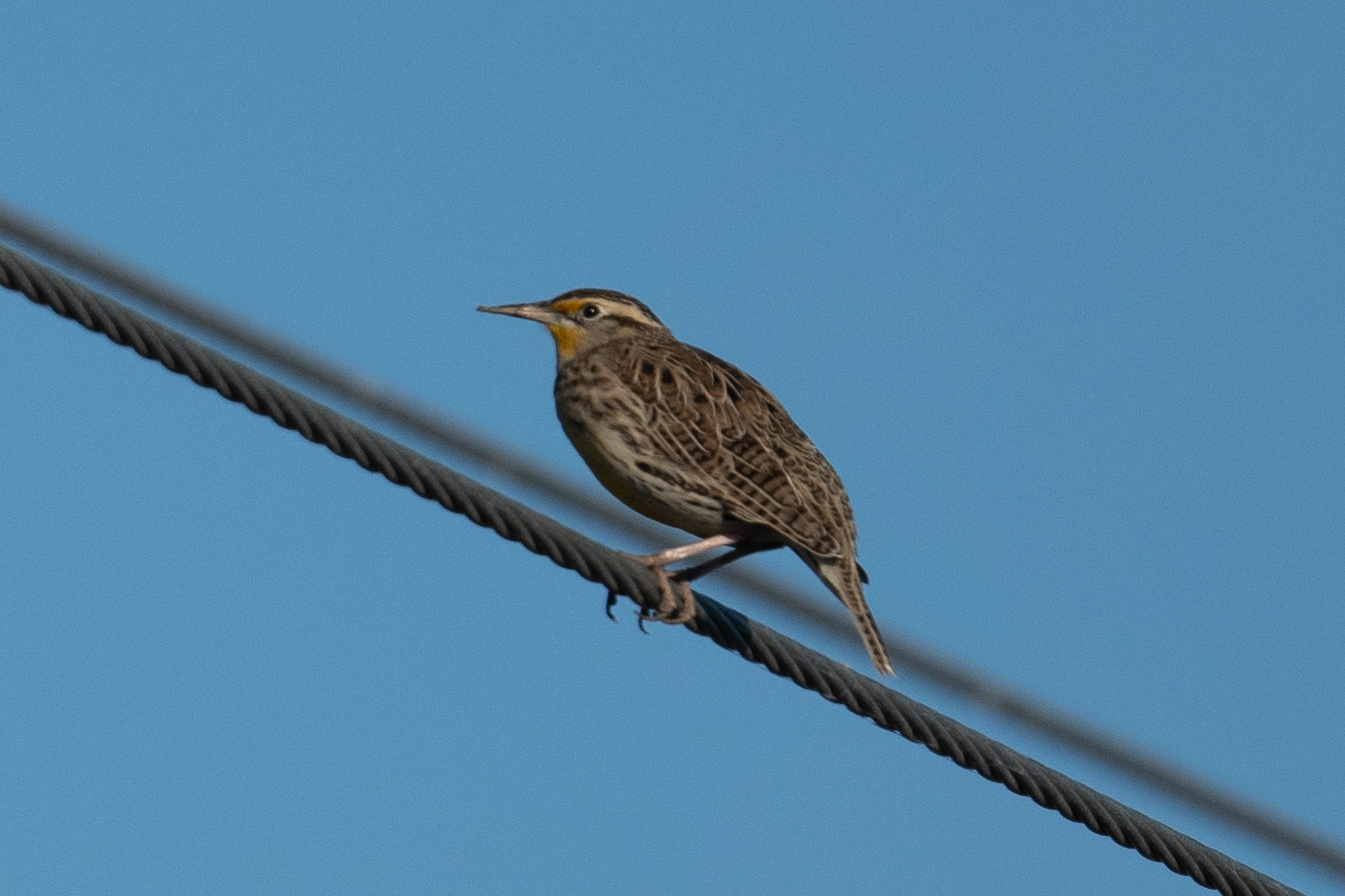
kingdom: Animalia
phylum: Chordata
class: Aves
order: Passeriformes
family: Icteridae
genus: Sturnella
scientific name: Sturnella neglecta
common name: Western meadowlark
